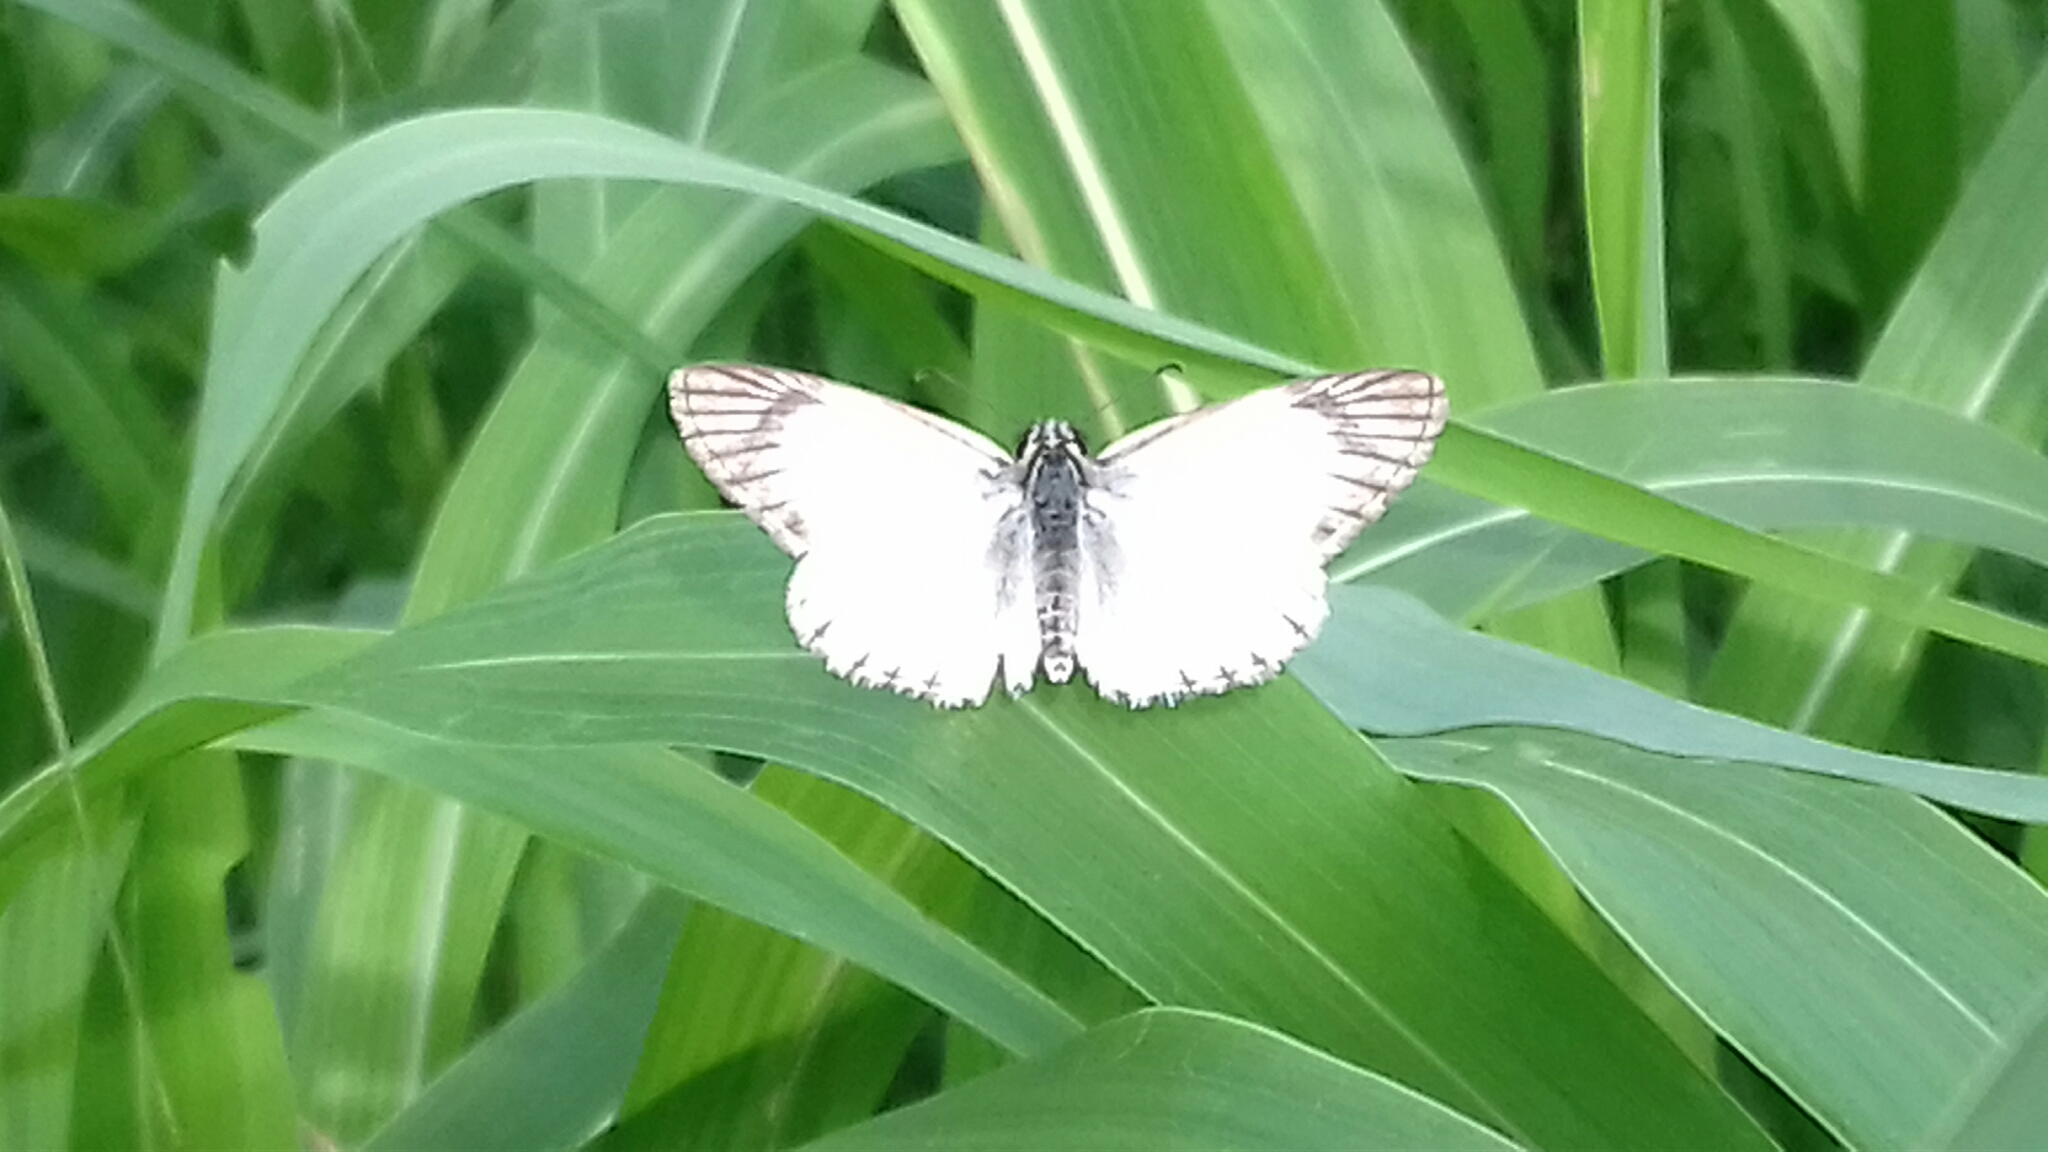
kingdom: Animalia
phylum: Arthropoda
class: Insecta
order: Lepidoptera
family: Hesperiidae
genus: Heliopetes
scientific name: Heliopetes arsalte
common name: Veined white-skipper
